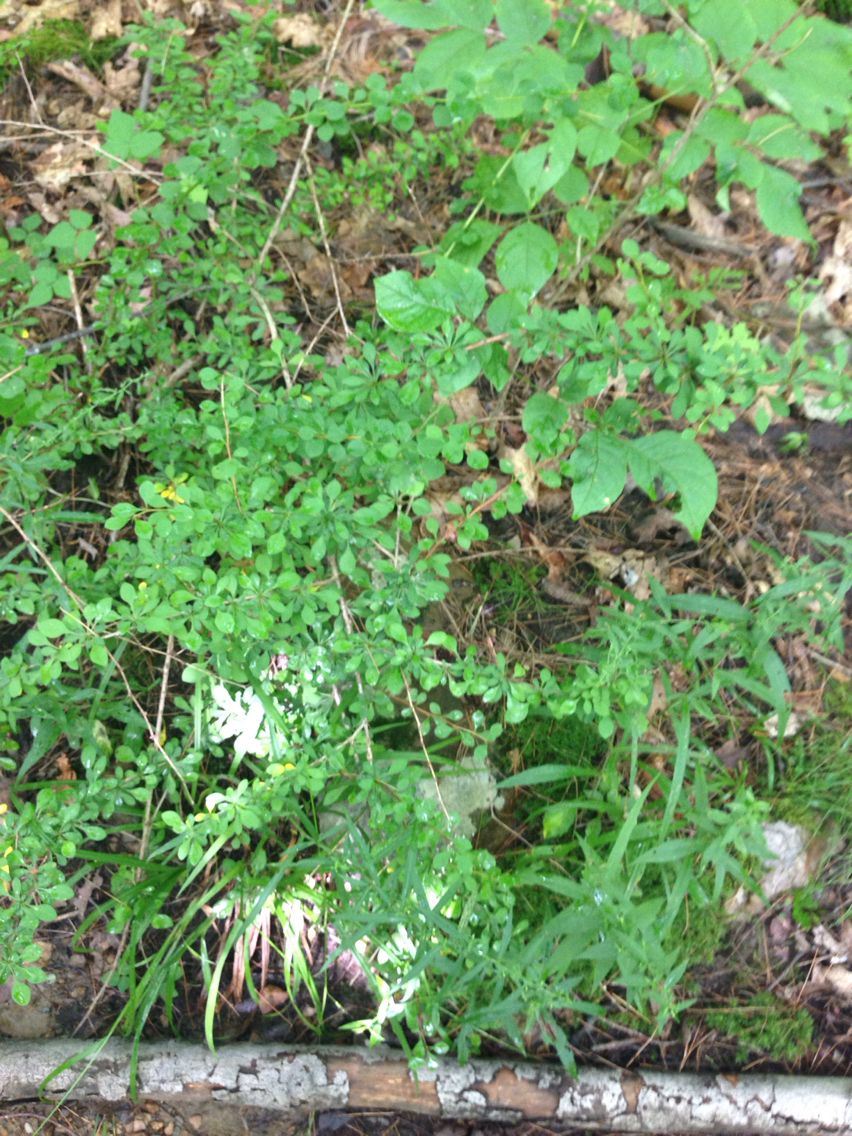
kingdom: Plantae
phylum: Tracheophyta
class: Magnoliopsida
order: Ranunculales
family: Berberidaceae
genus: Berberis
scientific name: Berberis thunbergii
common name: Japanese barberry
